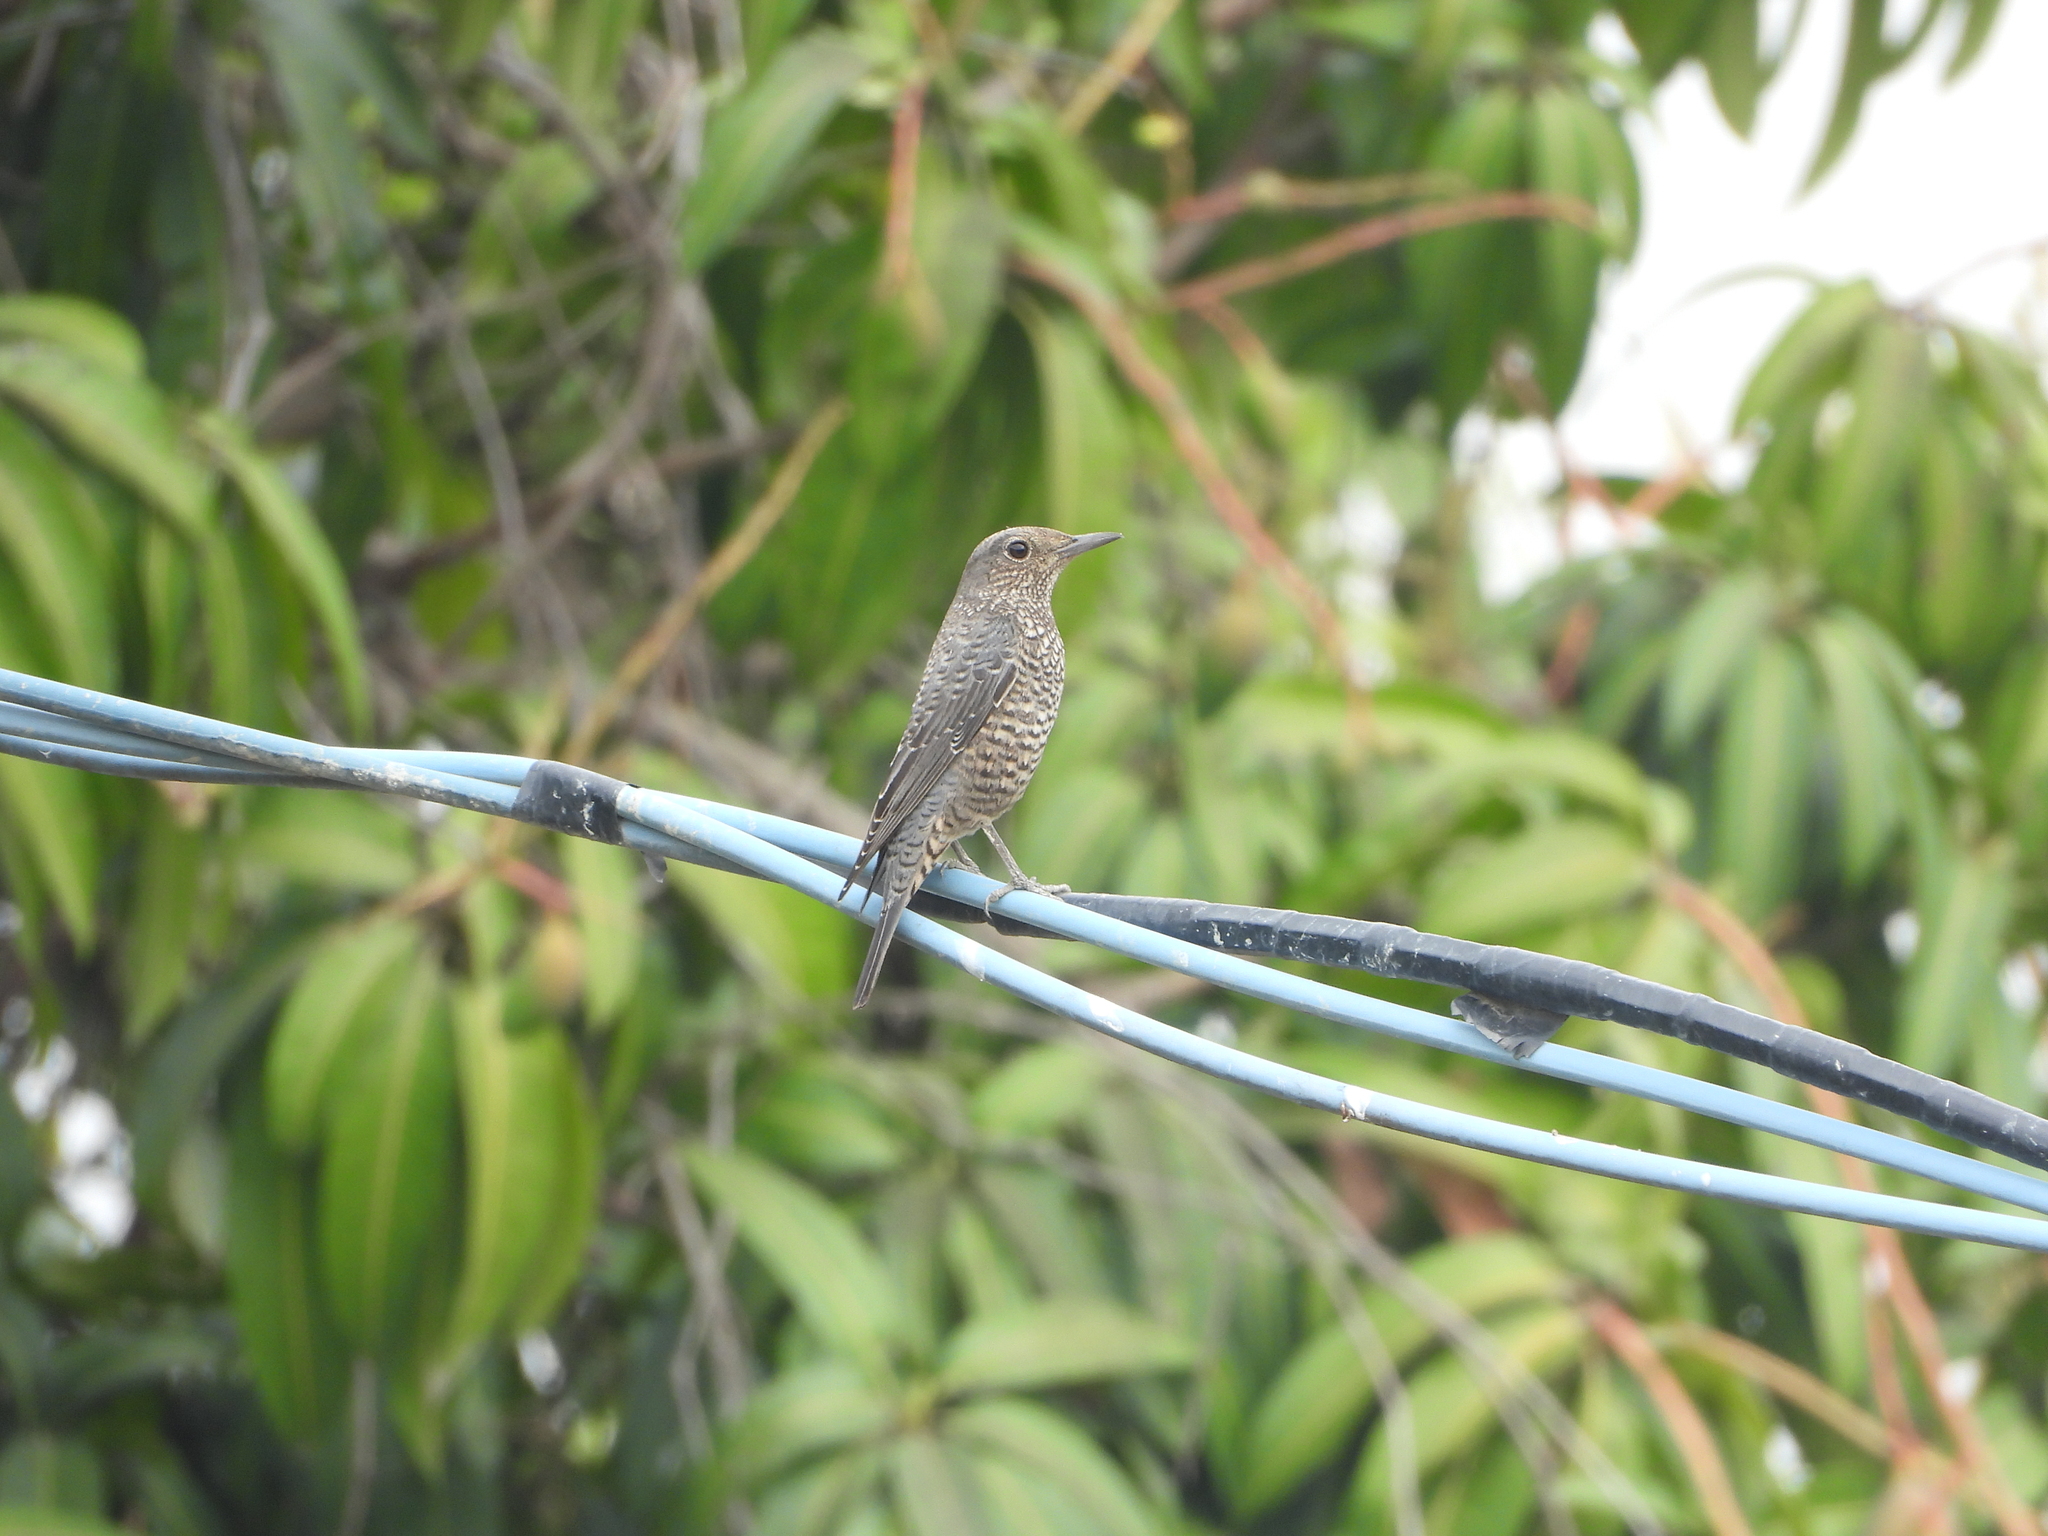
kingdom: Animalia
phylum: Chordata
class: Aves
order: Passeriformes
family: Muscicapidae
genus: Monticola
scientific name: Monticola solitarius
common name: Blue rock thrush
